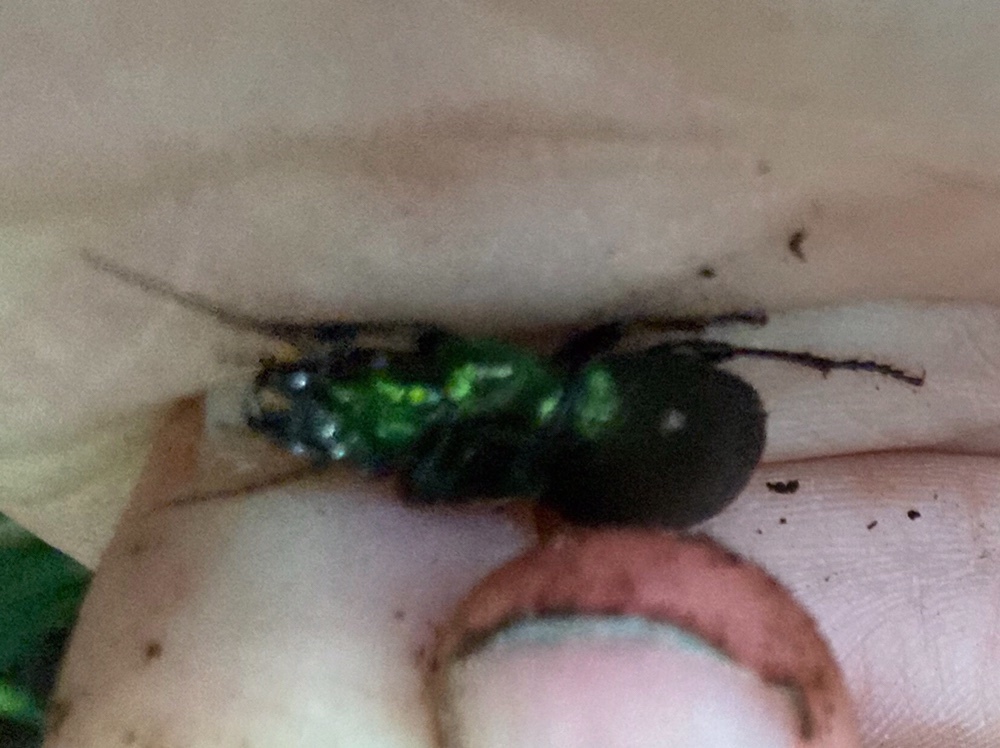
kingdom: Animalia
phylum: Arthropoda
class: Insecta
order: Coleoptera
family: Carabidae
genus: Megadromus
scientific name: Megadromus capito
